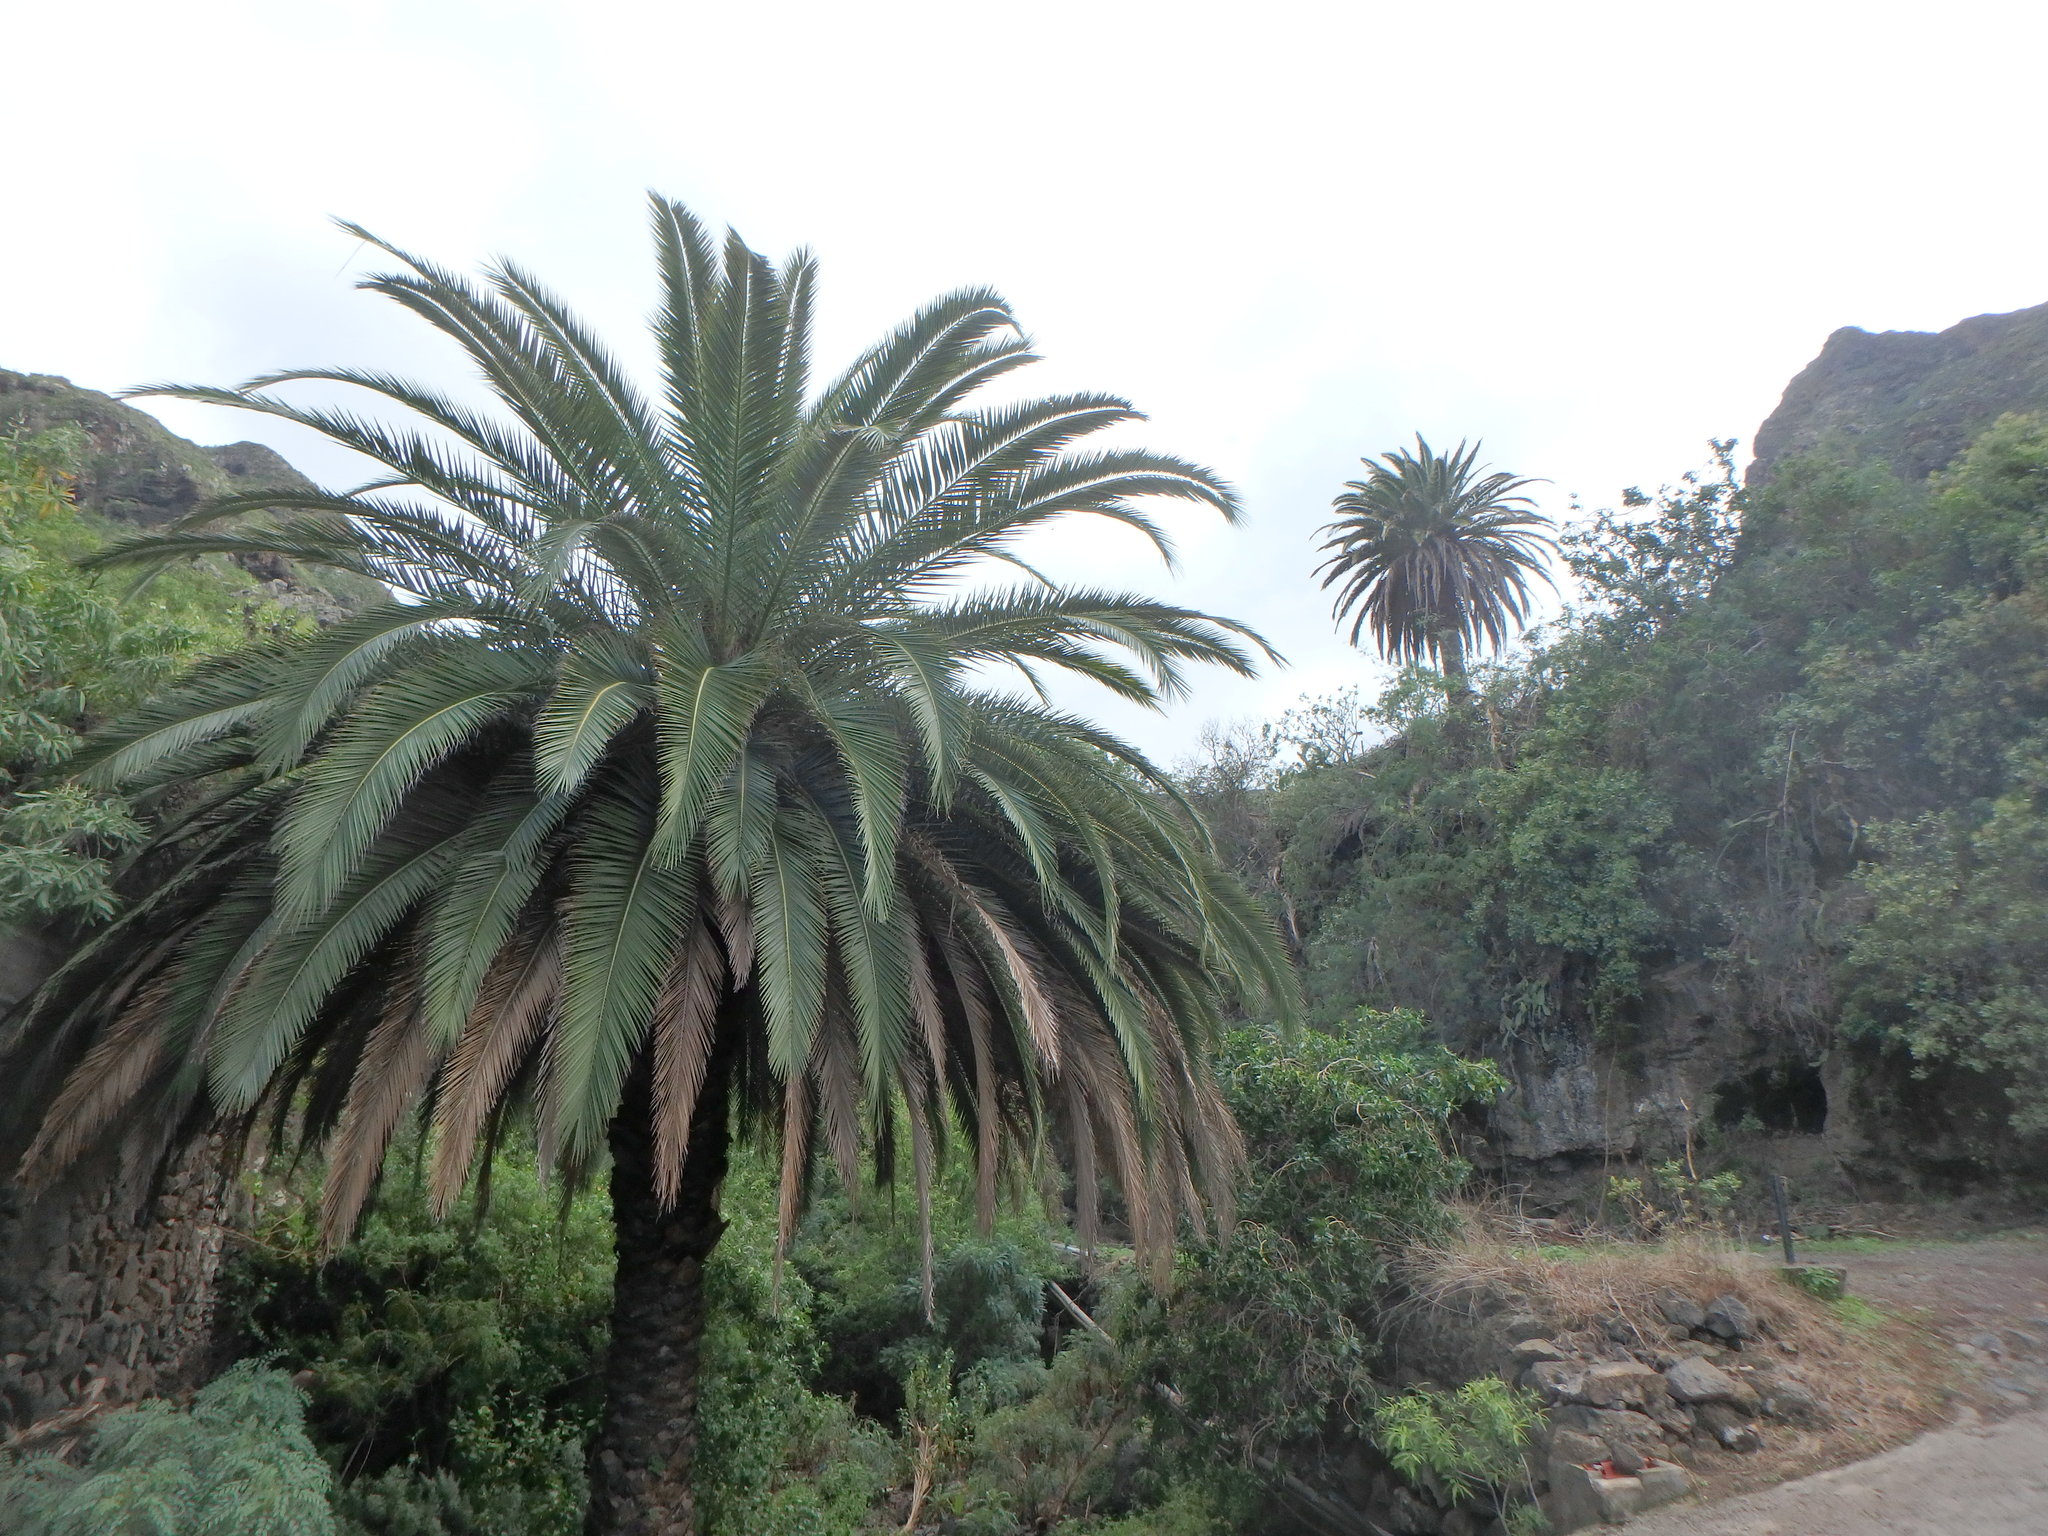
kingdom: Plantae
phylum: Tracheophyta
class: Liliopsida
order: Arecales
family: Arecaceae
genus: Phoenix
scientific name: Phoenix canariensis
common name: Canary island date palm
